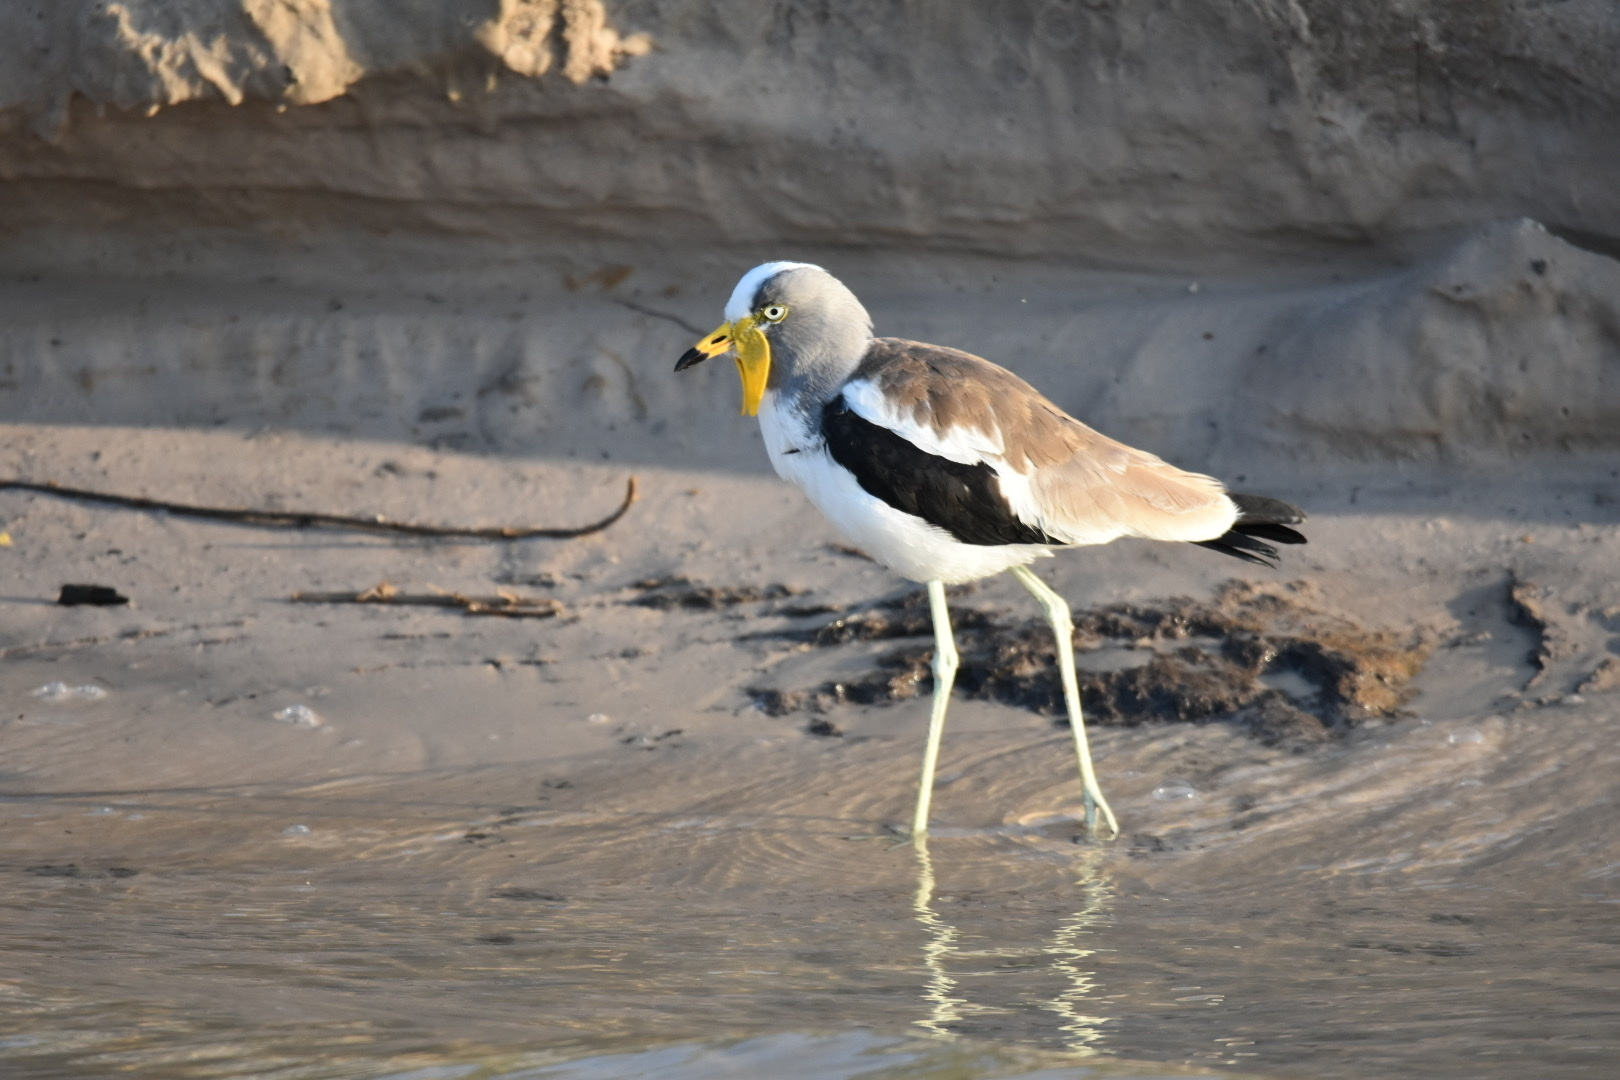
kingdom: Animalia
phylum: Chordata
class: Aves
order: Charadriiformes
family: Charadriidae
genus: Vanellus
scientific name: Vanellus albiceps
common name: White-crowned lapwing
